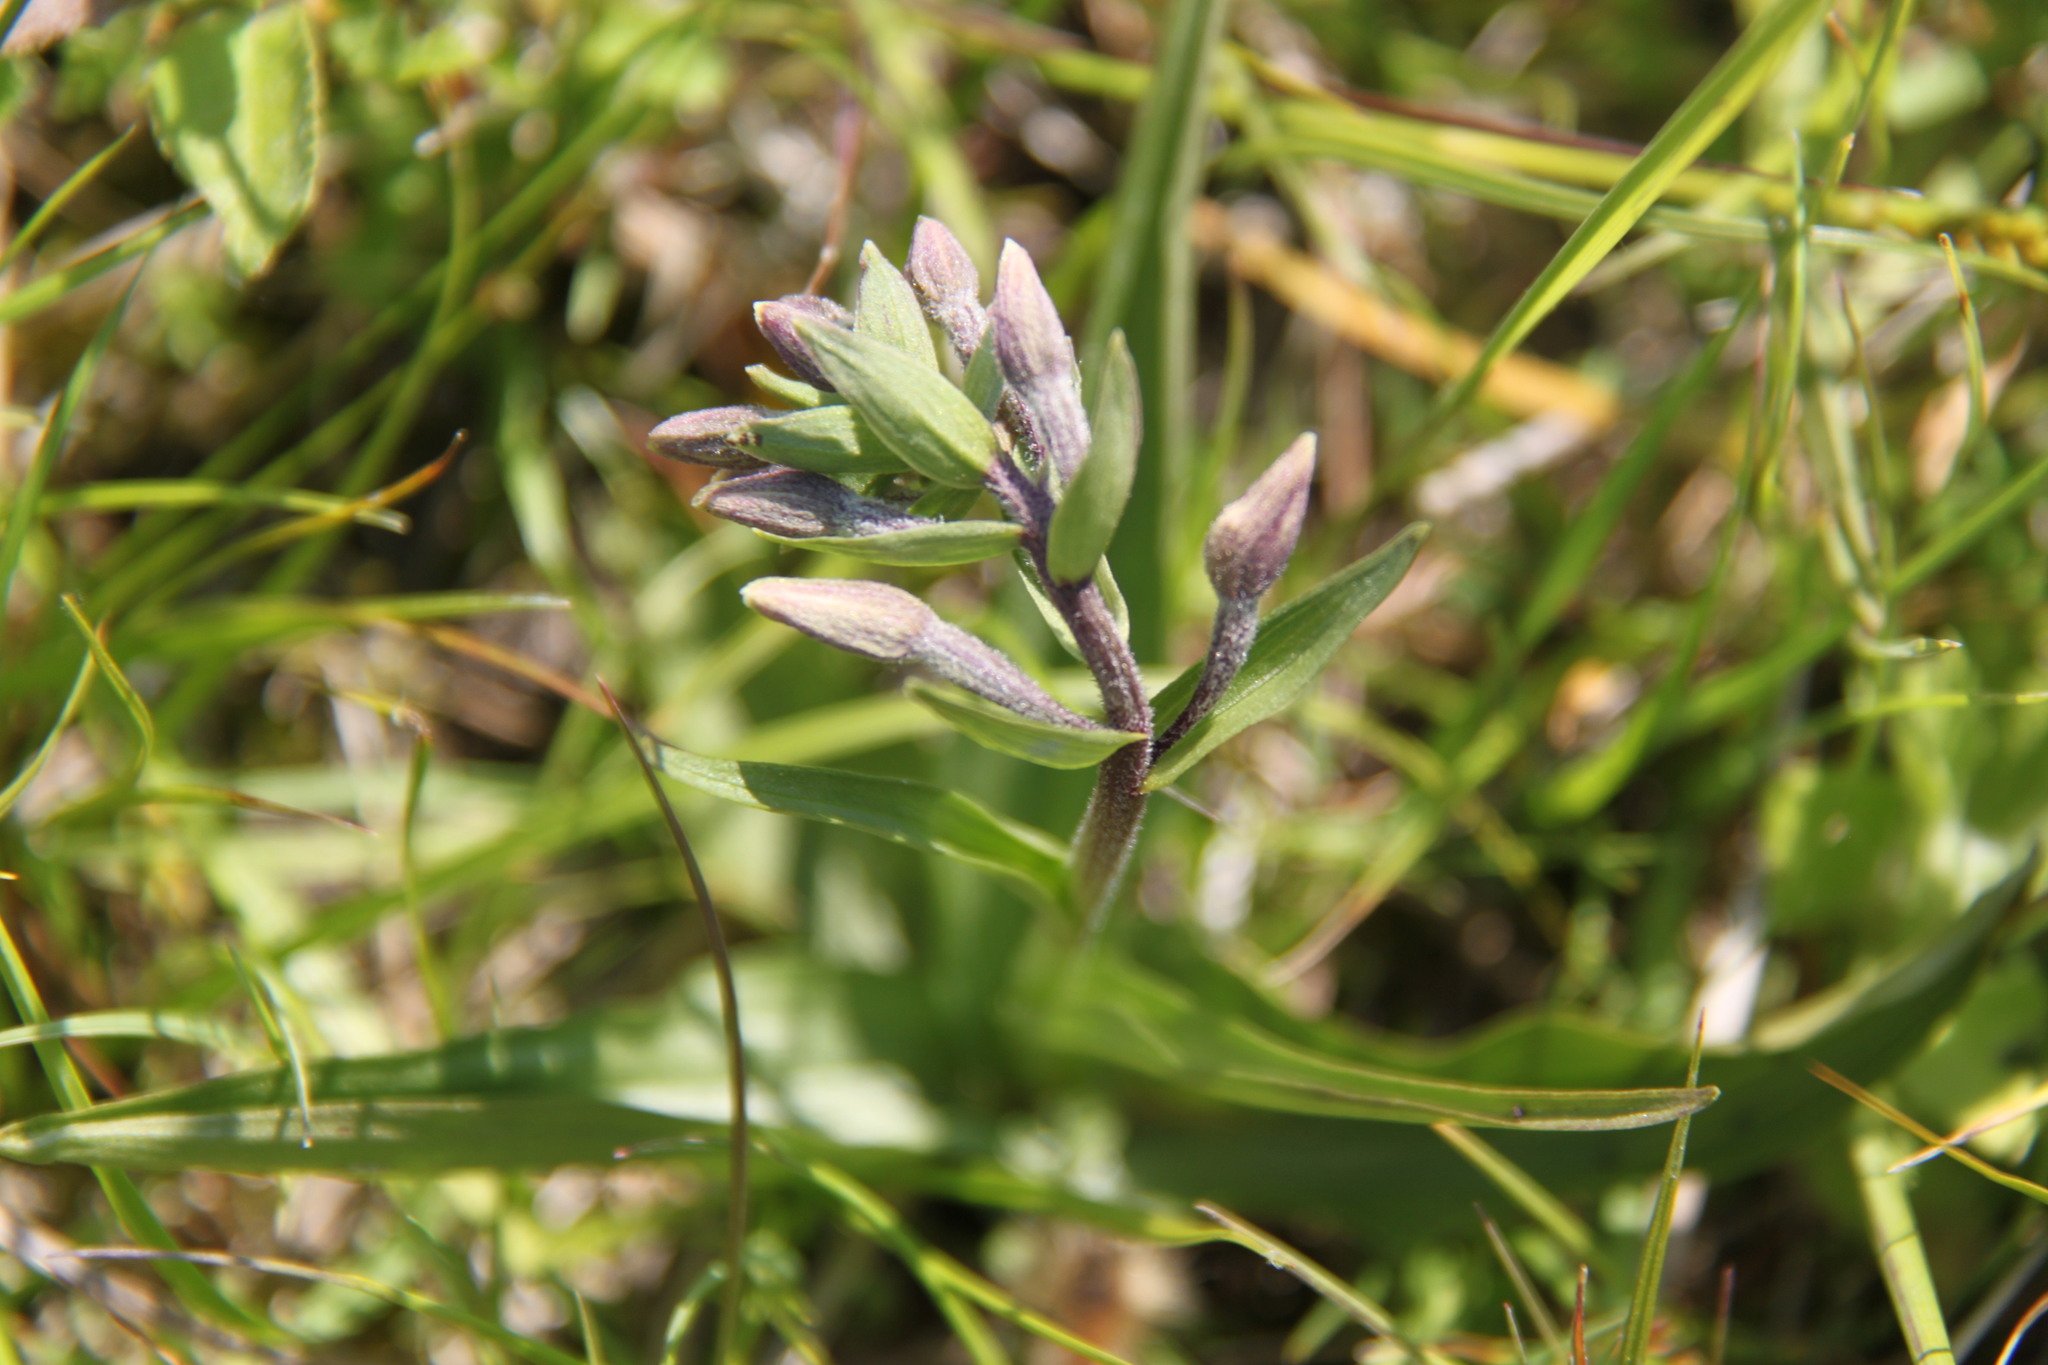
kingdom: Plantae
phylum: Tracheophyta
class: Liliopsida
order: Asparagales
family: Orchidaceae
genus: Epipactis
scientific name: Epipactis palustris
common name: Marsh helleborine
